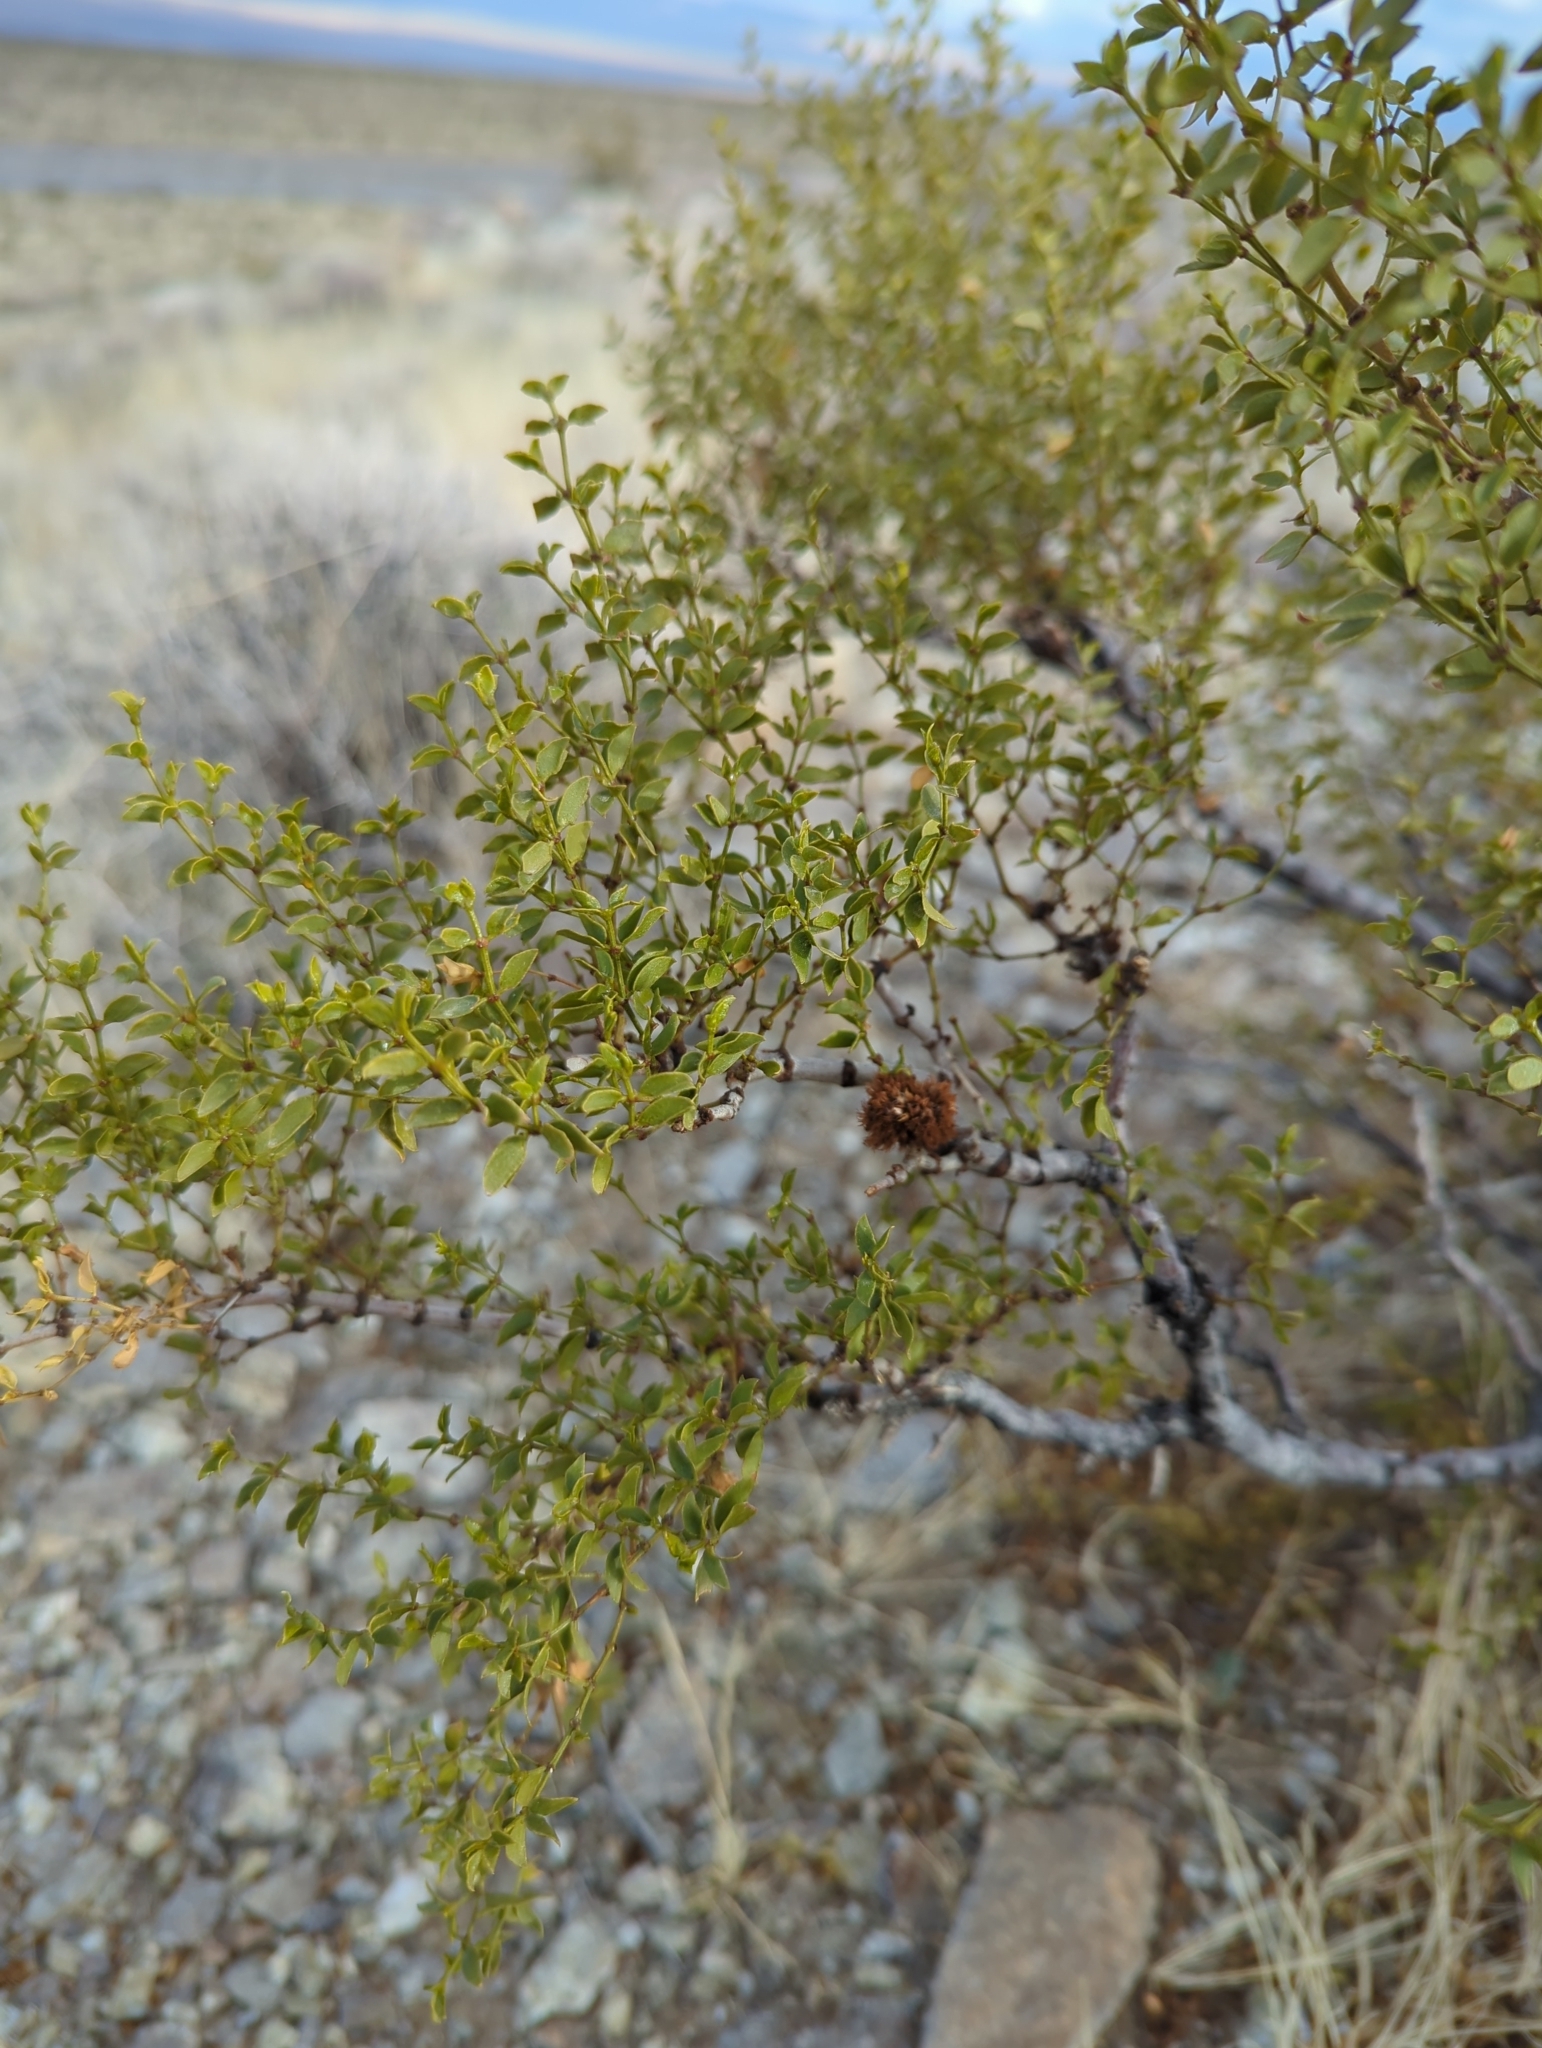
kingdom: Plantae
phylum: Tracheophyta
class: Magnoliopsida
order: Zygophyllales
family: Zygophyllaceae
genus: Larrea
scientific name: Larrea tridentata
